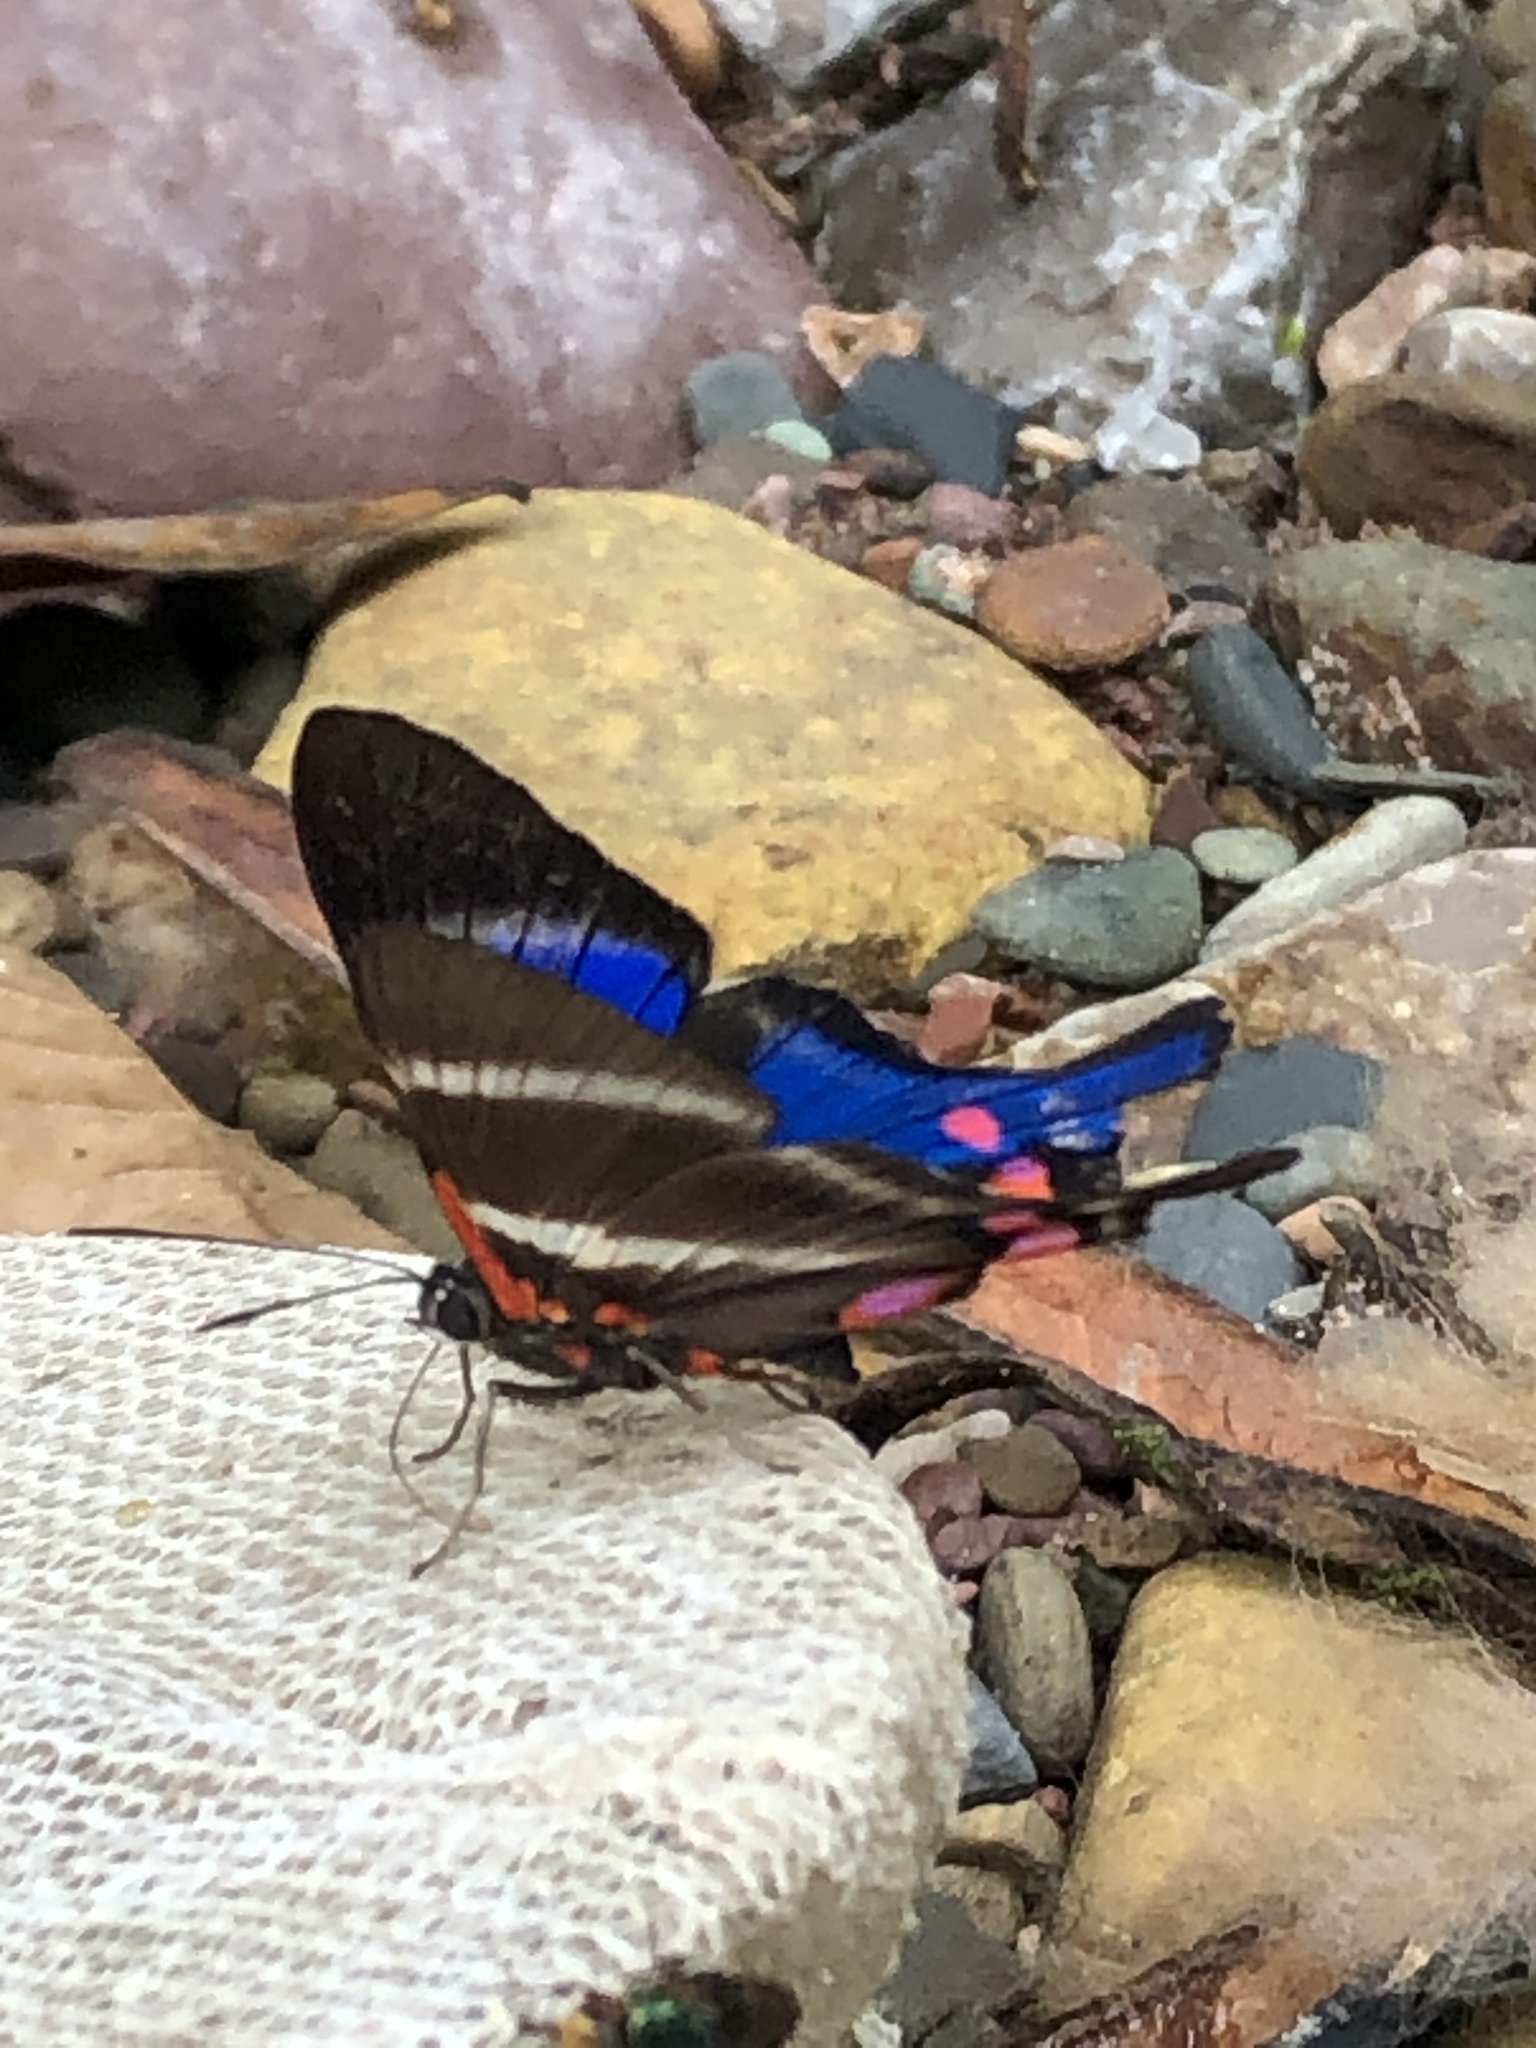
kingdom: Animalia
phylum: Arthropoda
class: Insecta
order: Lepidoptera
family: Riodinidae
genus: Rhetus
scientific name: Rhetus periander
